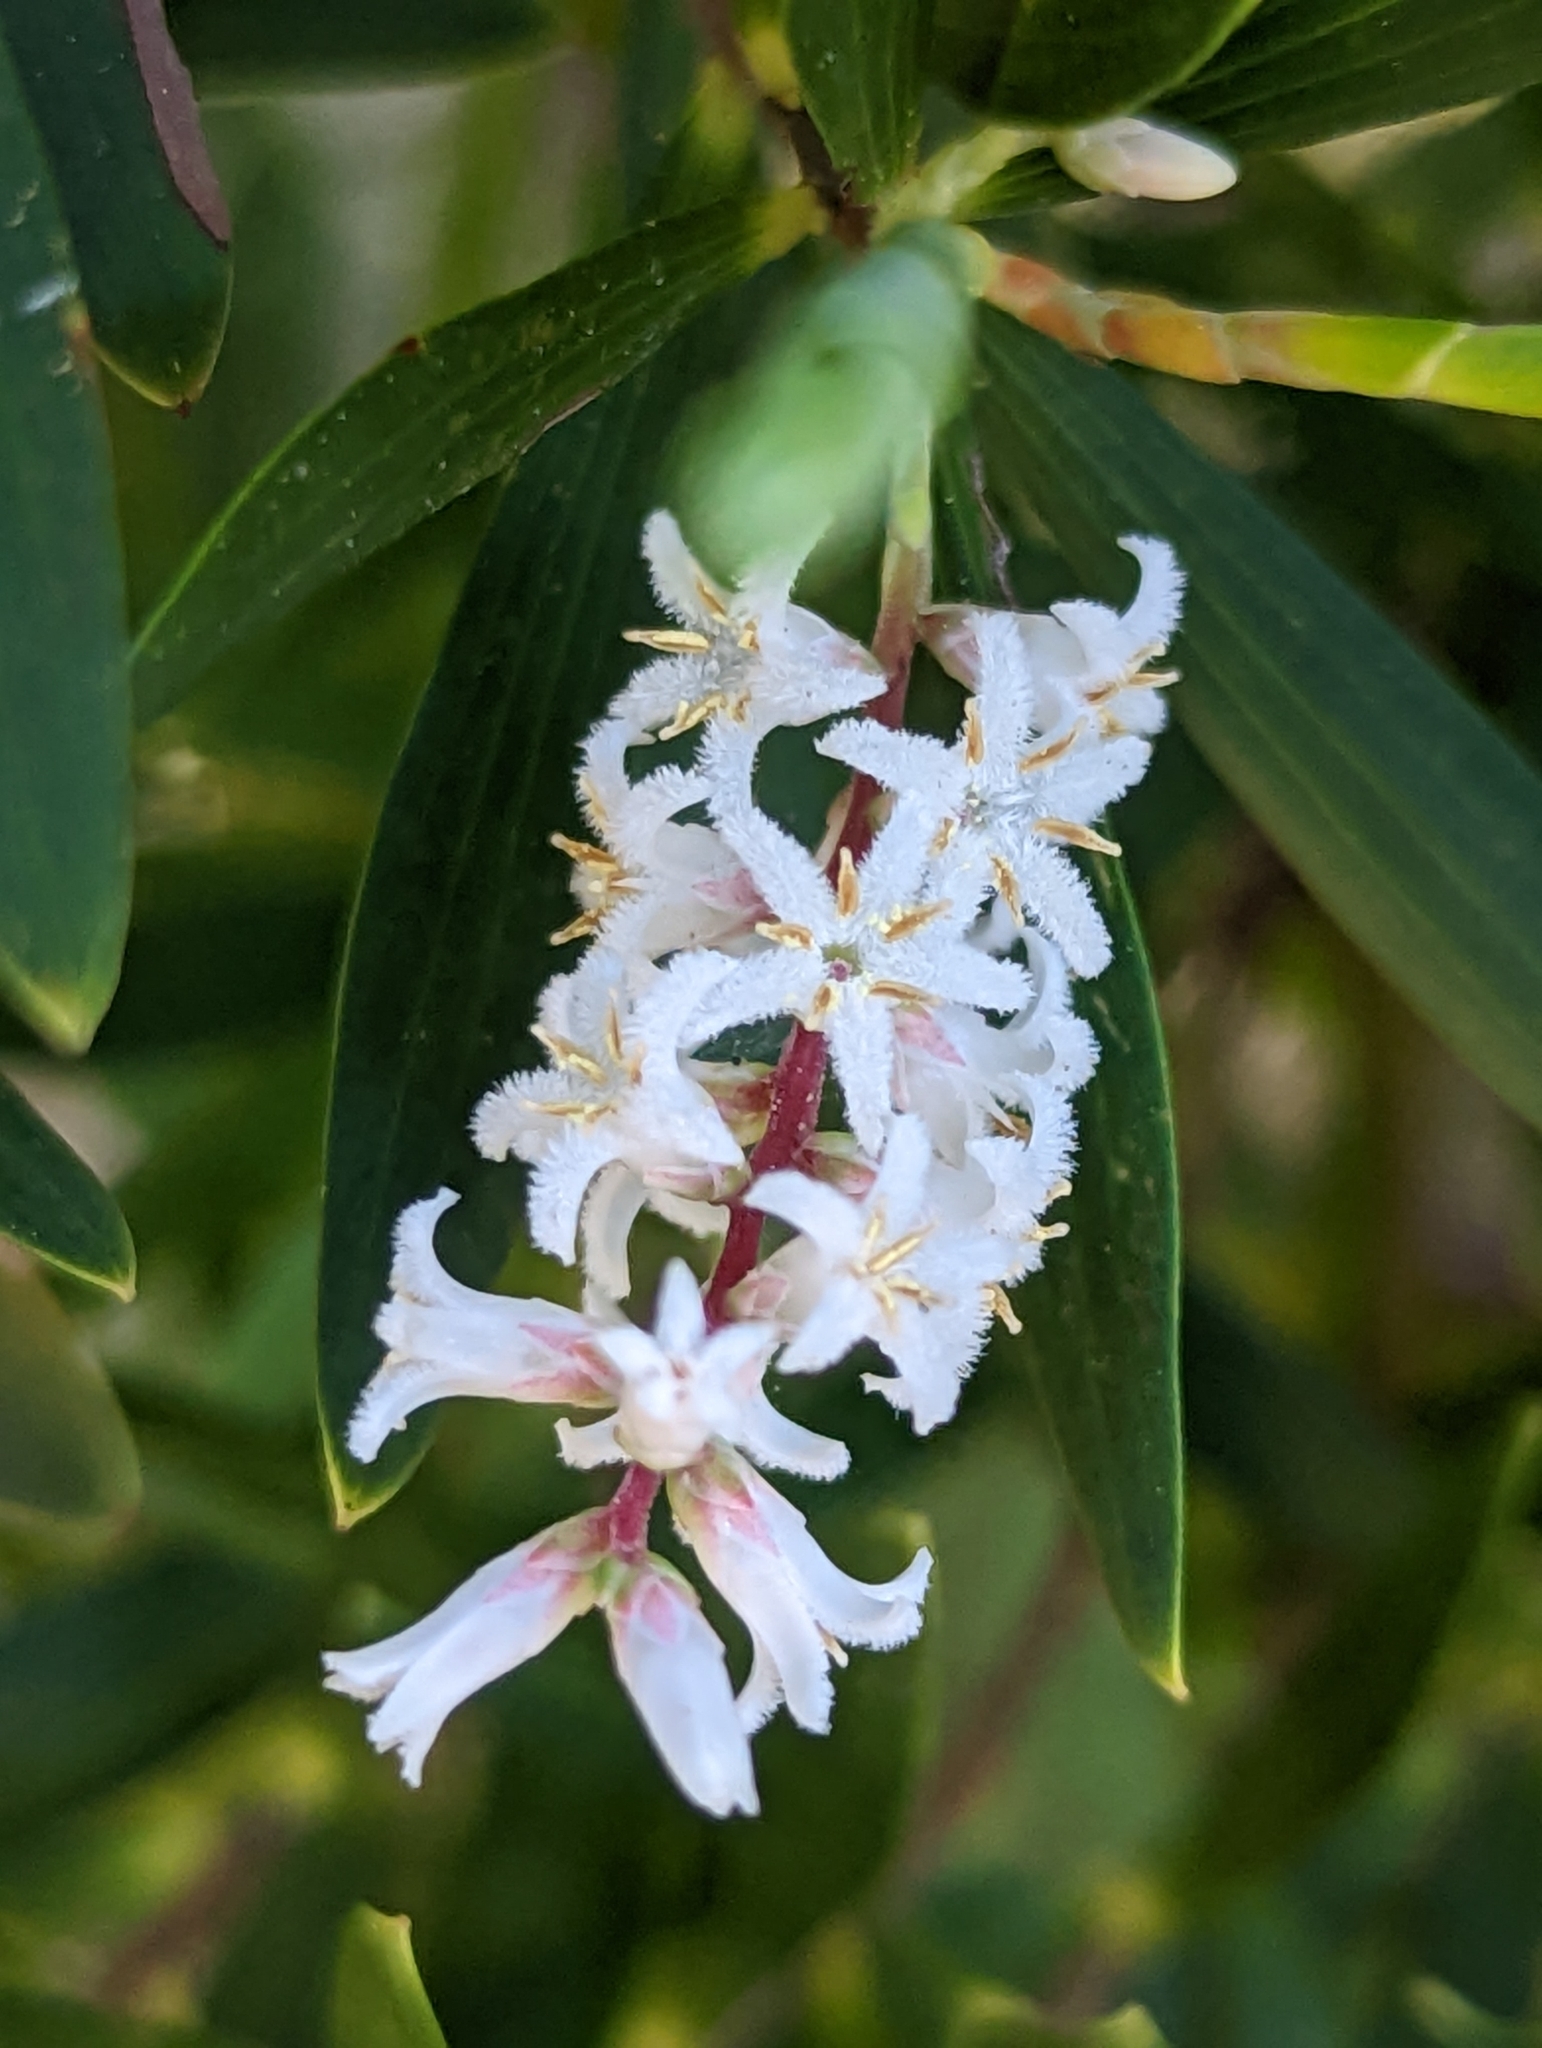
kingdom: Plantae
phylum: Tracheophyta
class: Magnoliopsida
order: Ericales
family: Ericaceae
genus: Leptecophylla
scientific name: Leptecophylla parvifolia
